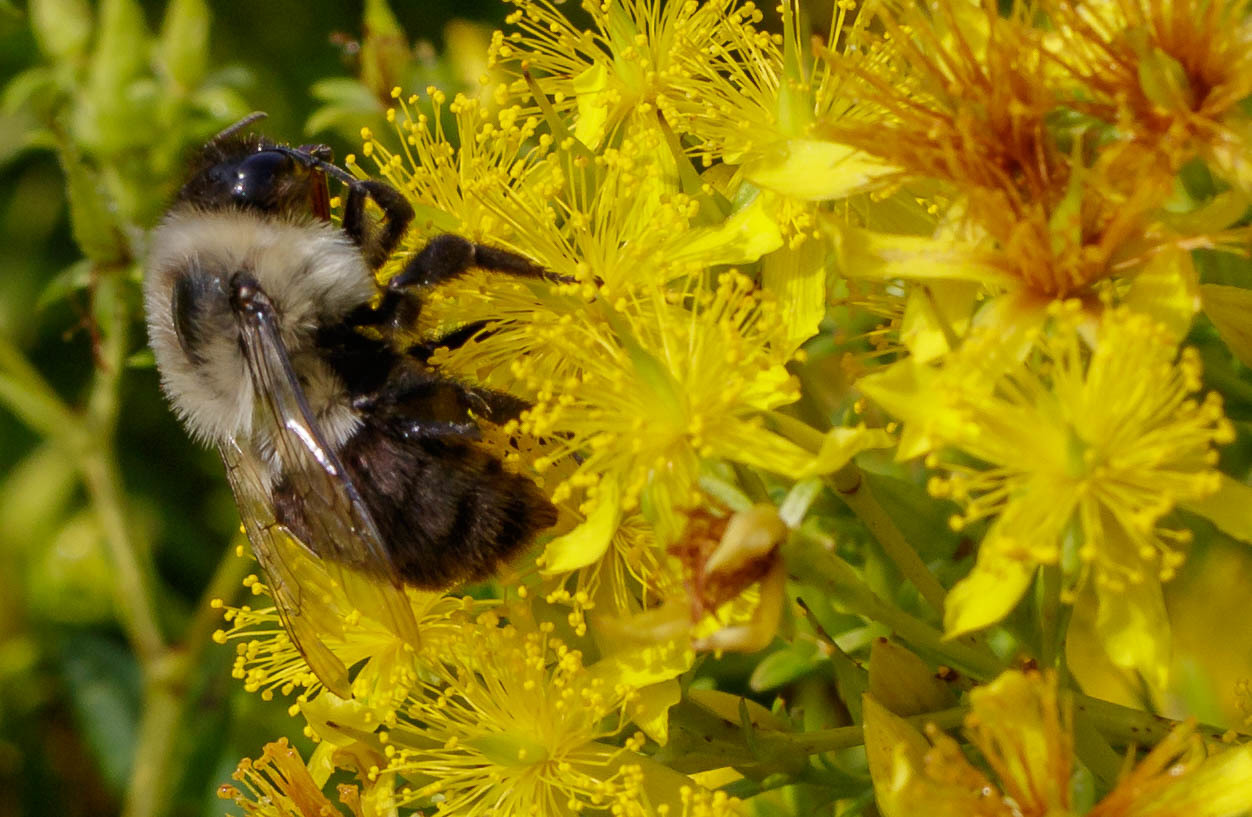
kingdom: Animalia
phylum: Arthropoda
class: Insecta
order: Hymenoptera
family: Apidae
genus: Bombus
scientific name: Bombus impatiens
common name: Common eastern bumble bee
